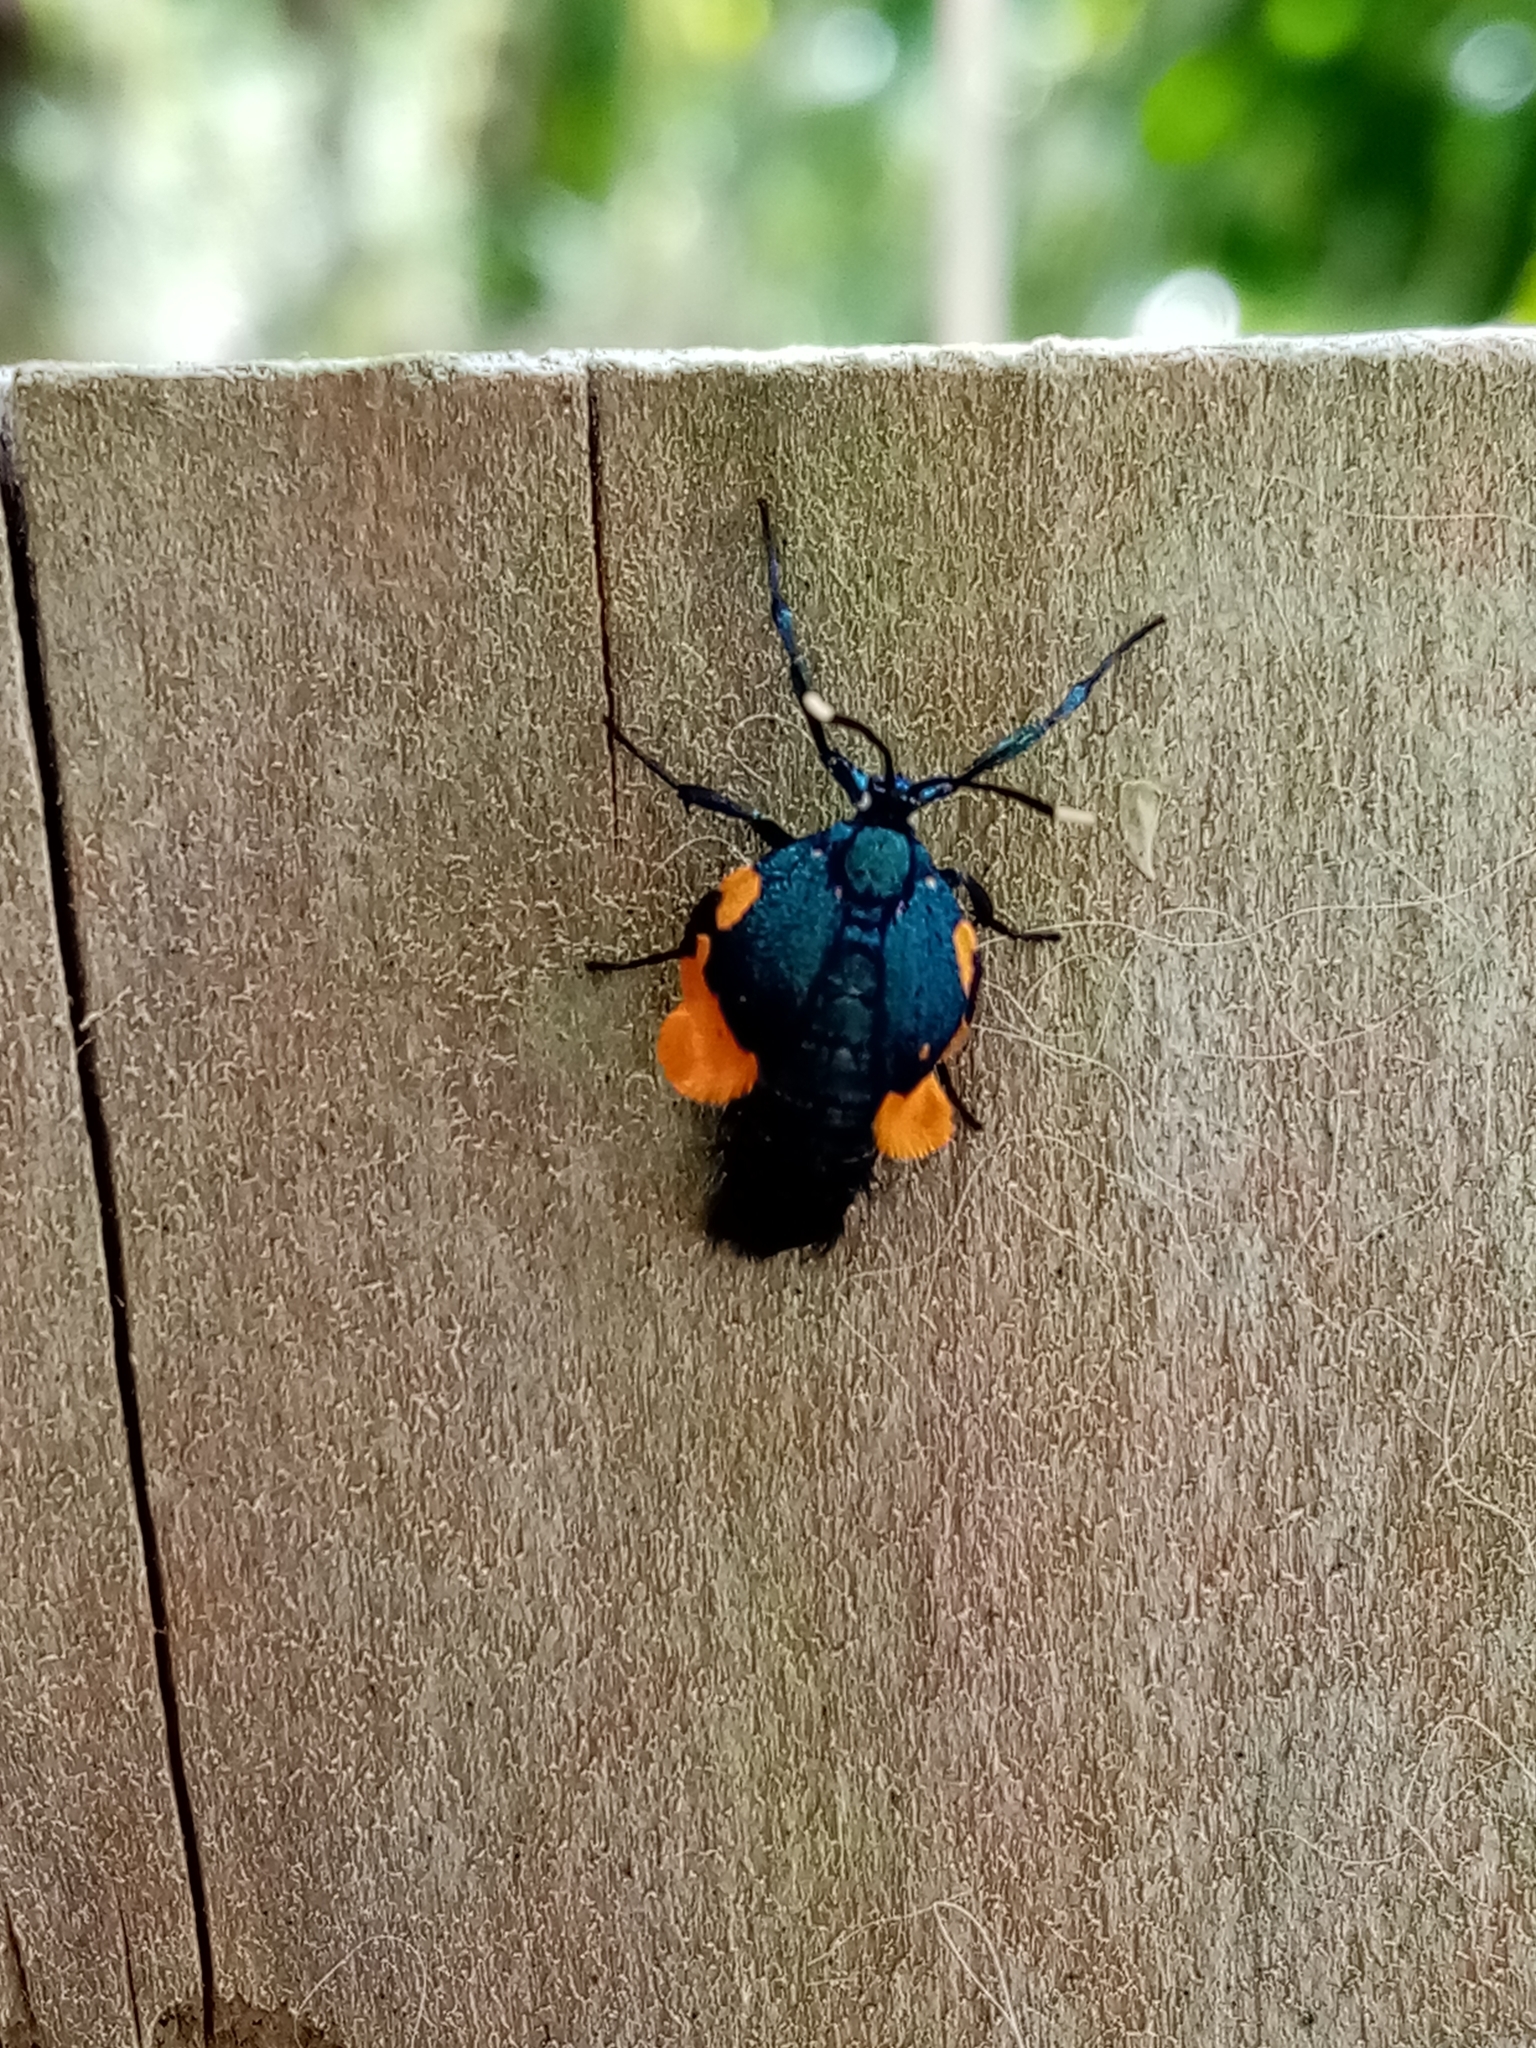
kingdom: Animalia
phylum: Arthropoda
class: Insecta
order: Lepidoptera
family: Psychidae
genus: Cebysa
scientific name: Cebysa leucotelus
